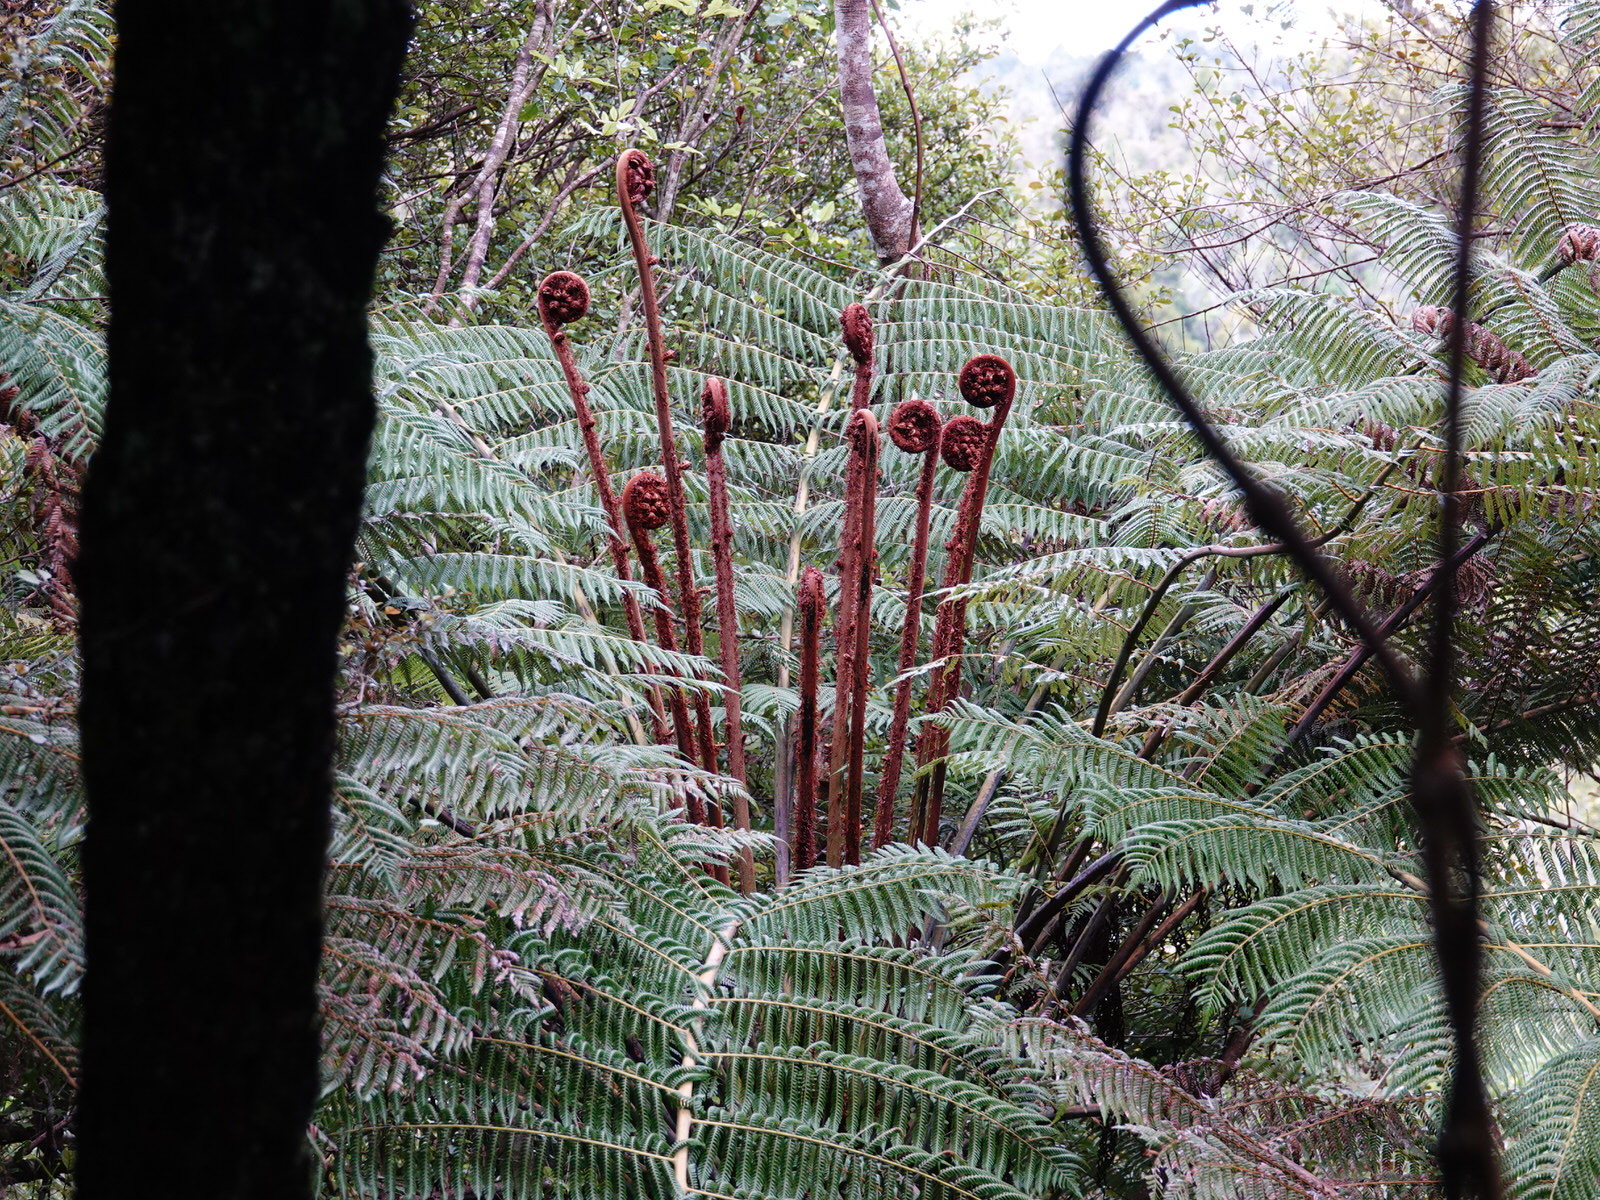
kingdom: Plantae
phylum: Tracheophyta
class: Polypodiopsida
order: Cyatheales
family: Cyatheaceae
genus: Alsophila
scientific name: Alsophila dealbata
